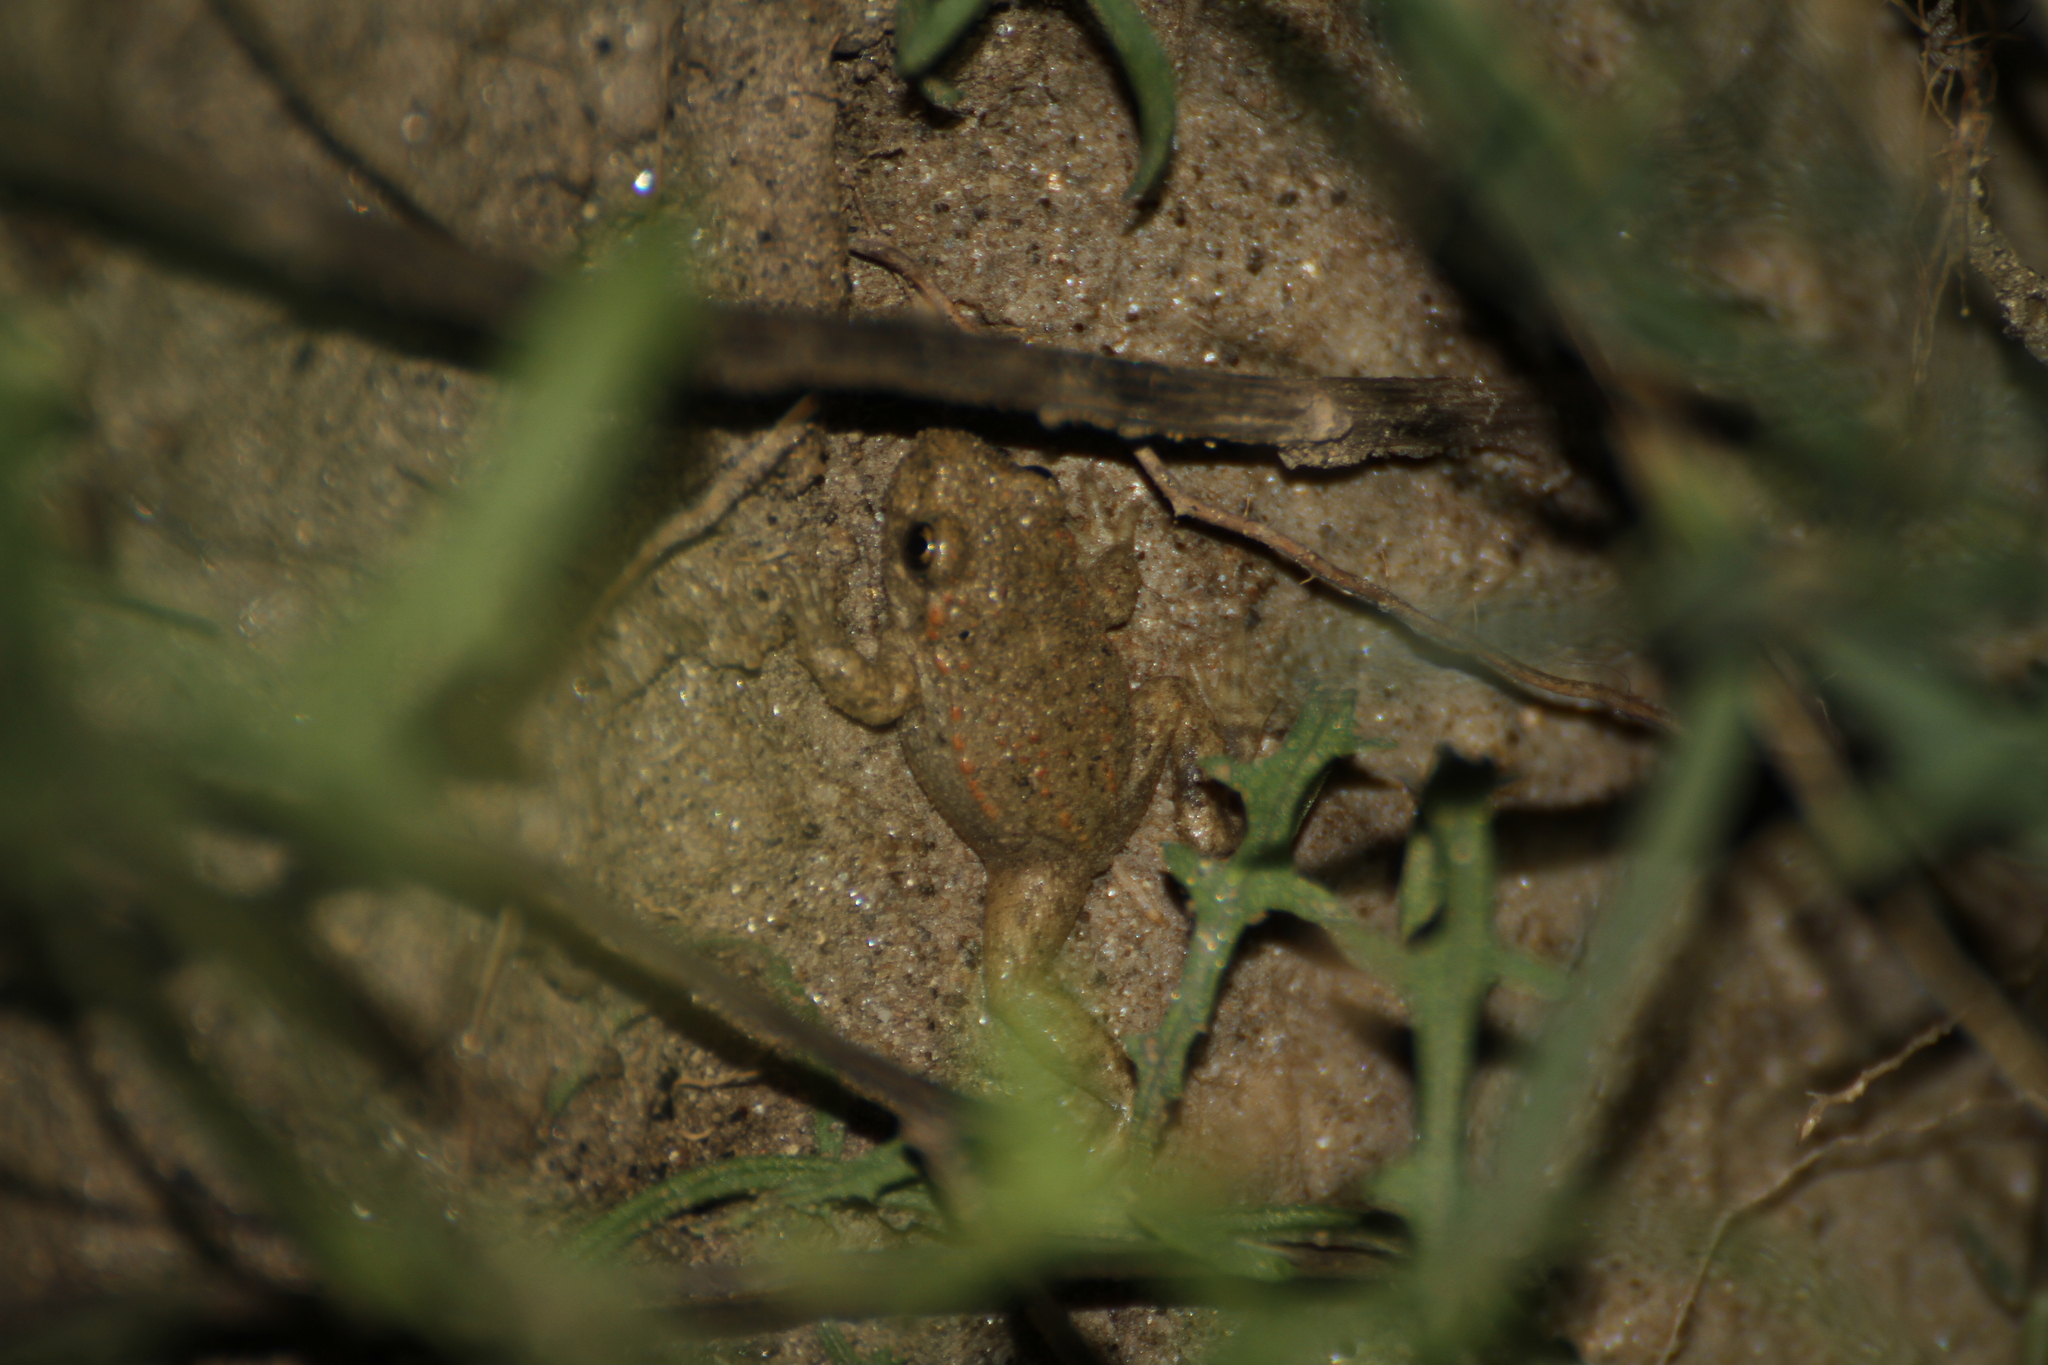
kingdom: Animalia
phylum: Chordata
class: Amphibia
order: Anura
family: Alytidae
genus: Alytes
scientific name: Alytes obstetricans
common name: Midwife toad
